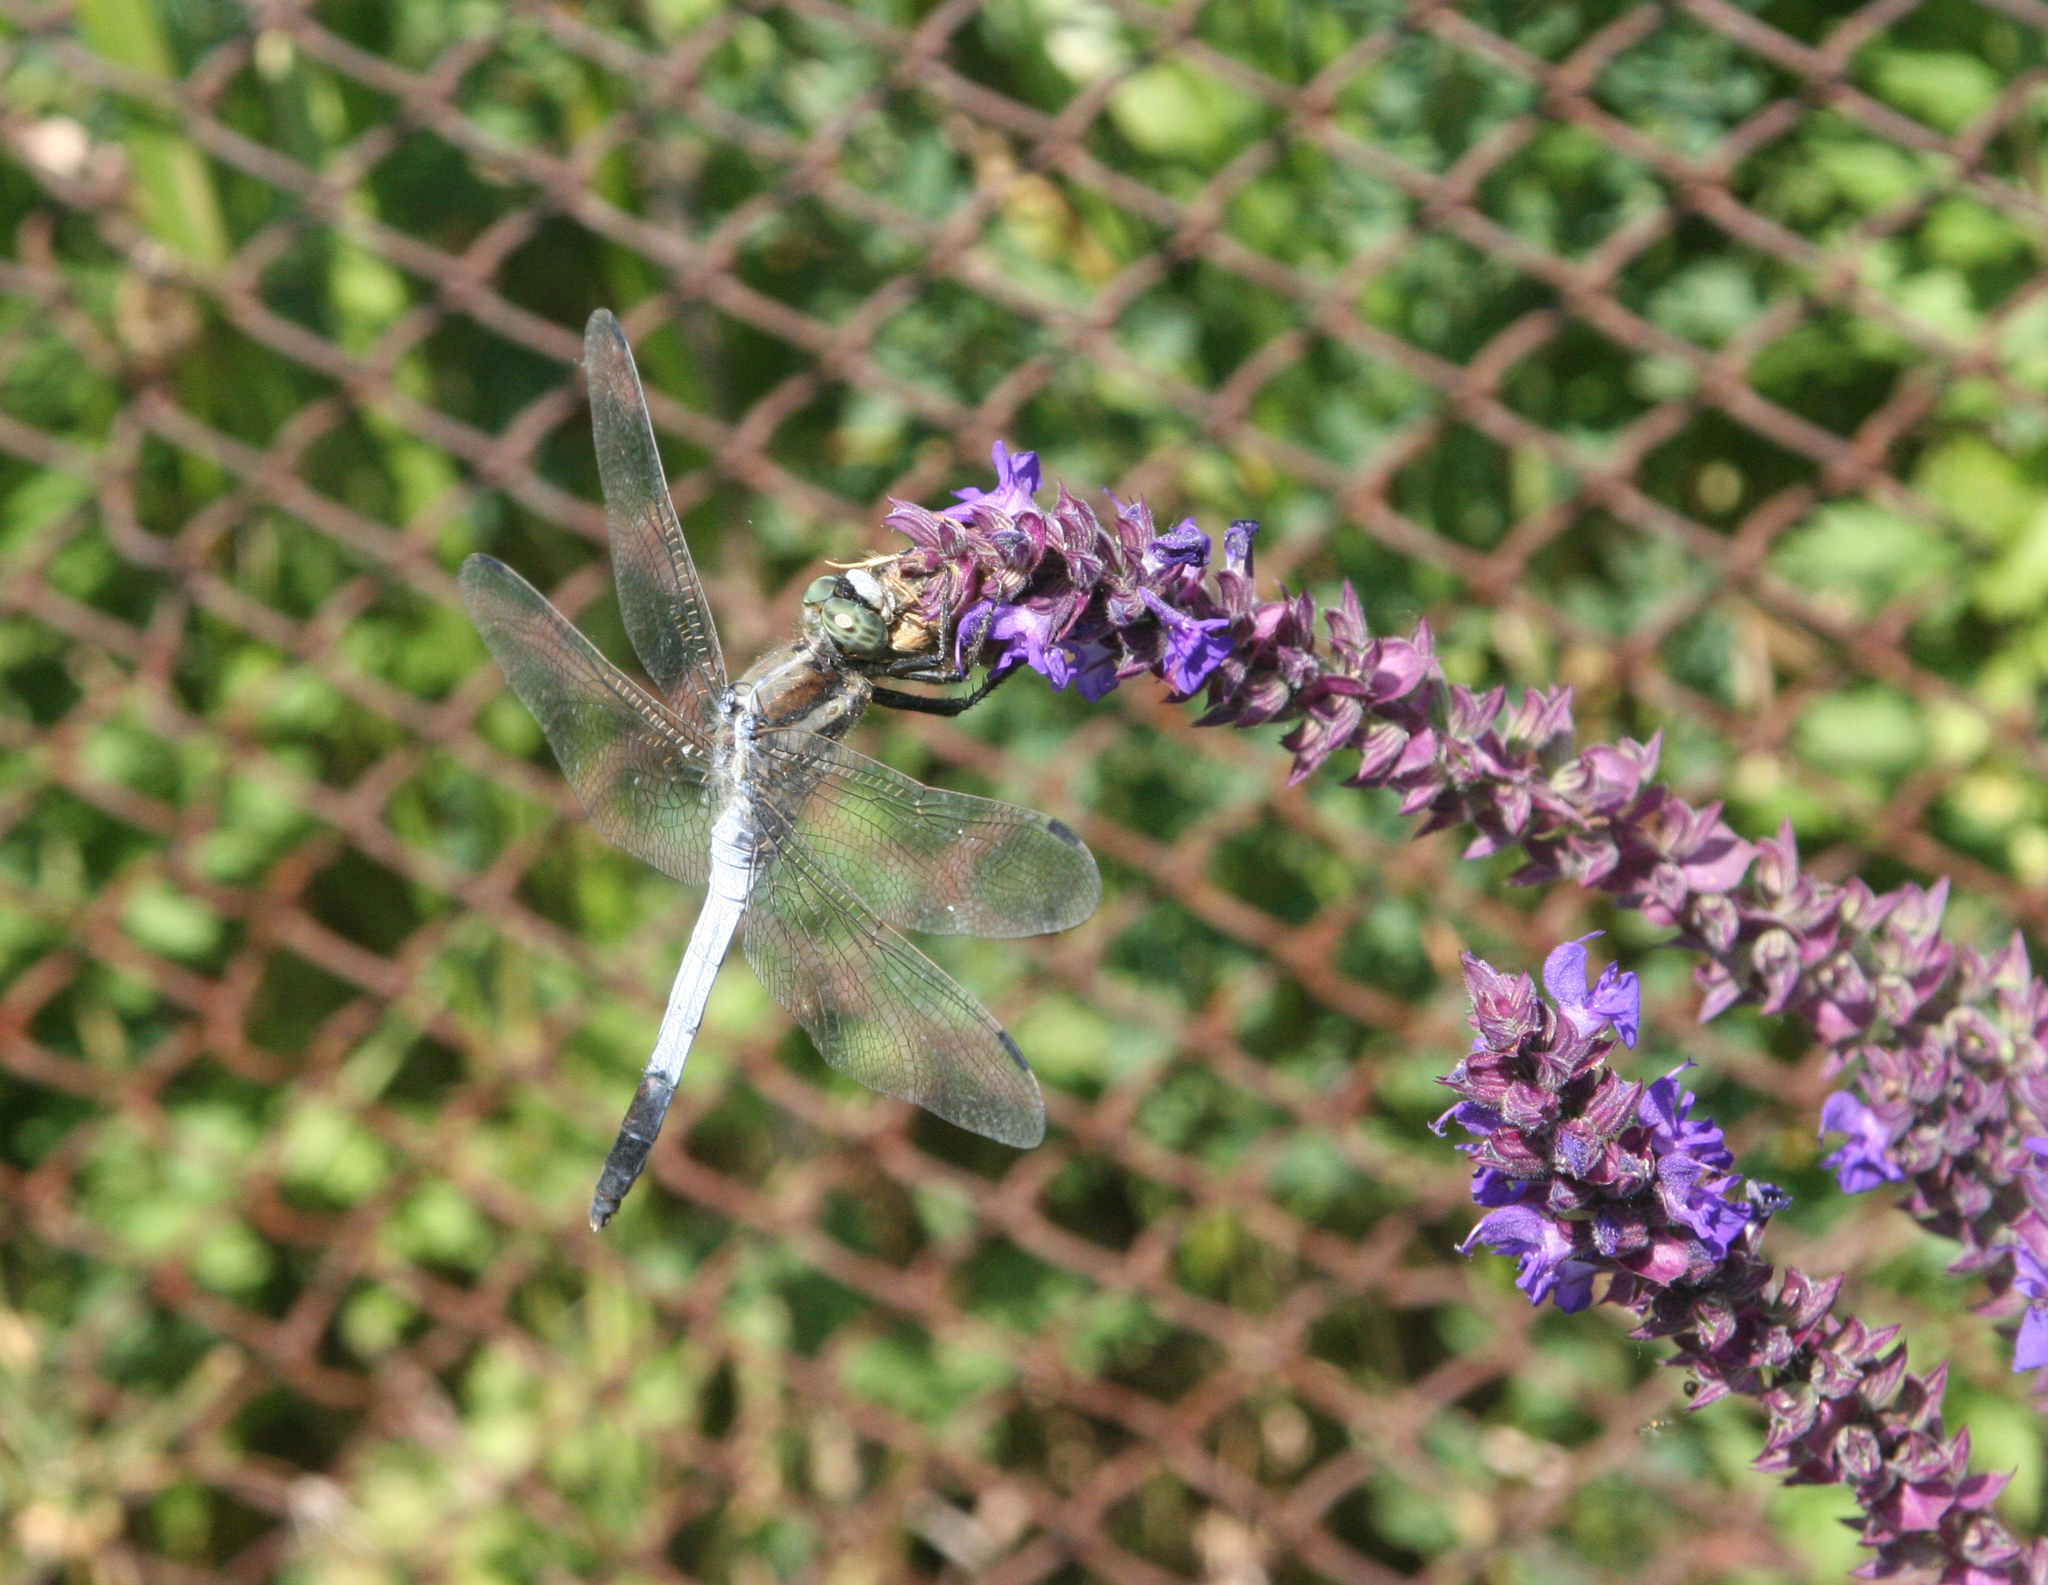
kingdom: Plantae
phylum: Tracheophyta
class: Magnoliopsida
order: Lamiales
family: Lamiaceae
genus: Salvia
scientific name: Salvia nemorosa
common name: Balkan clary
